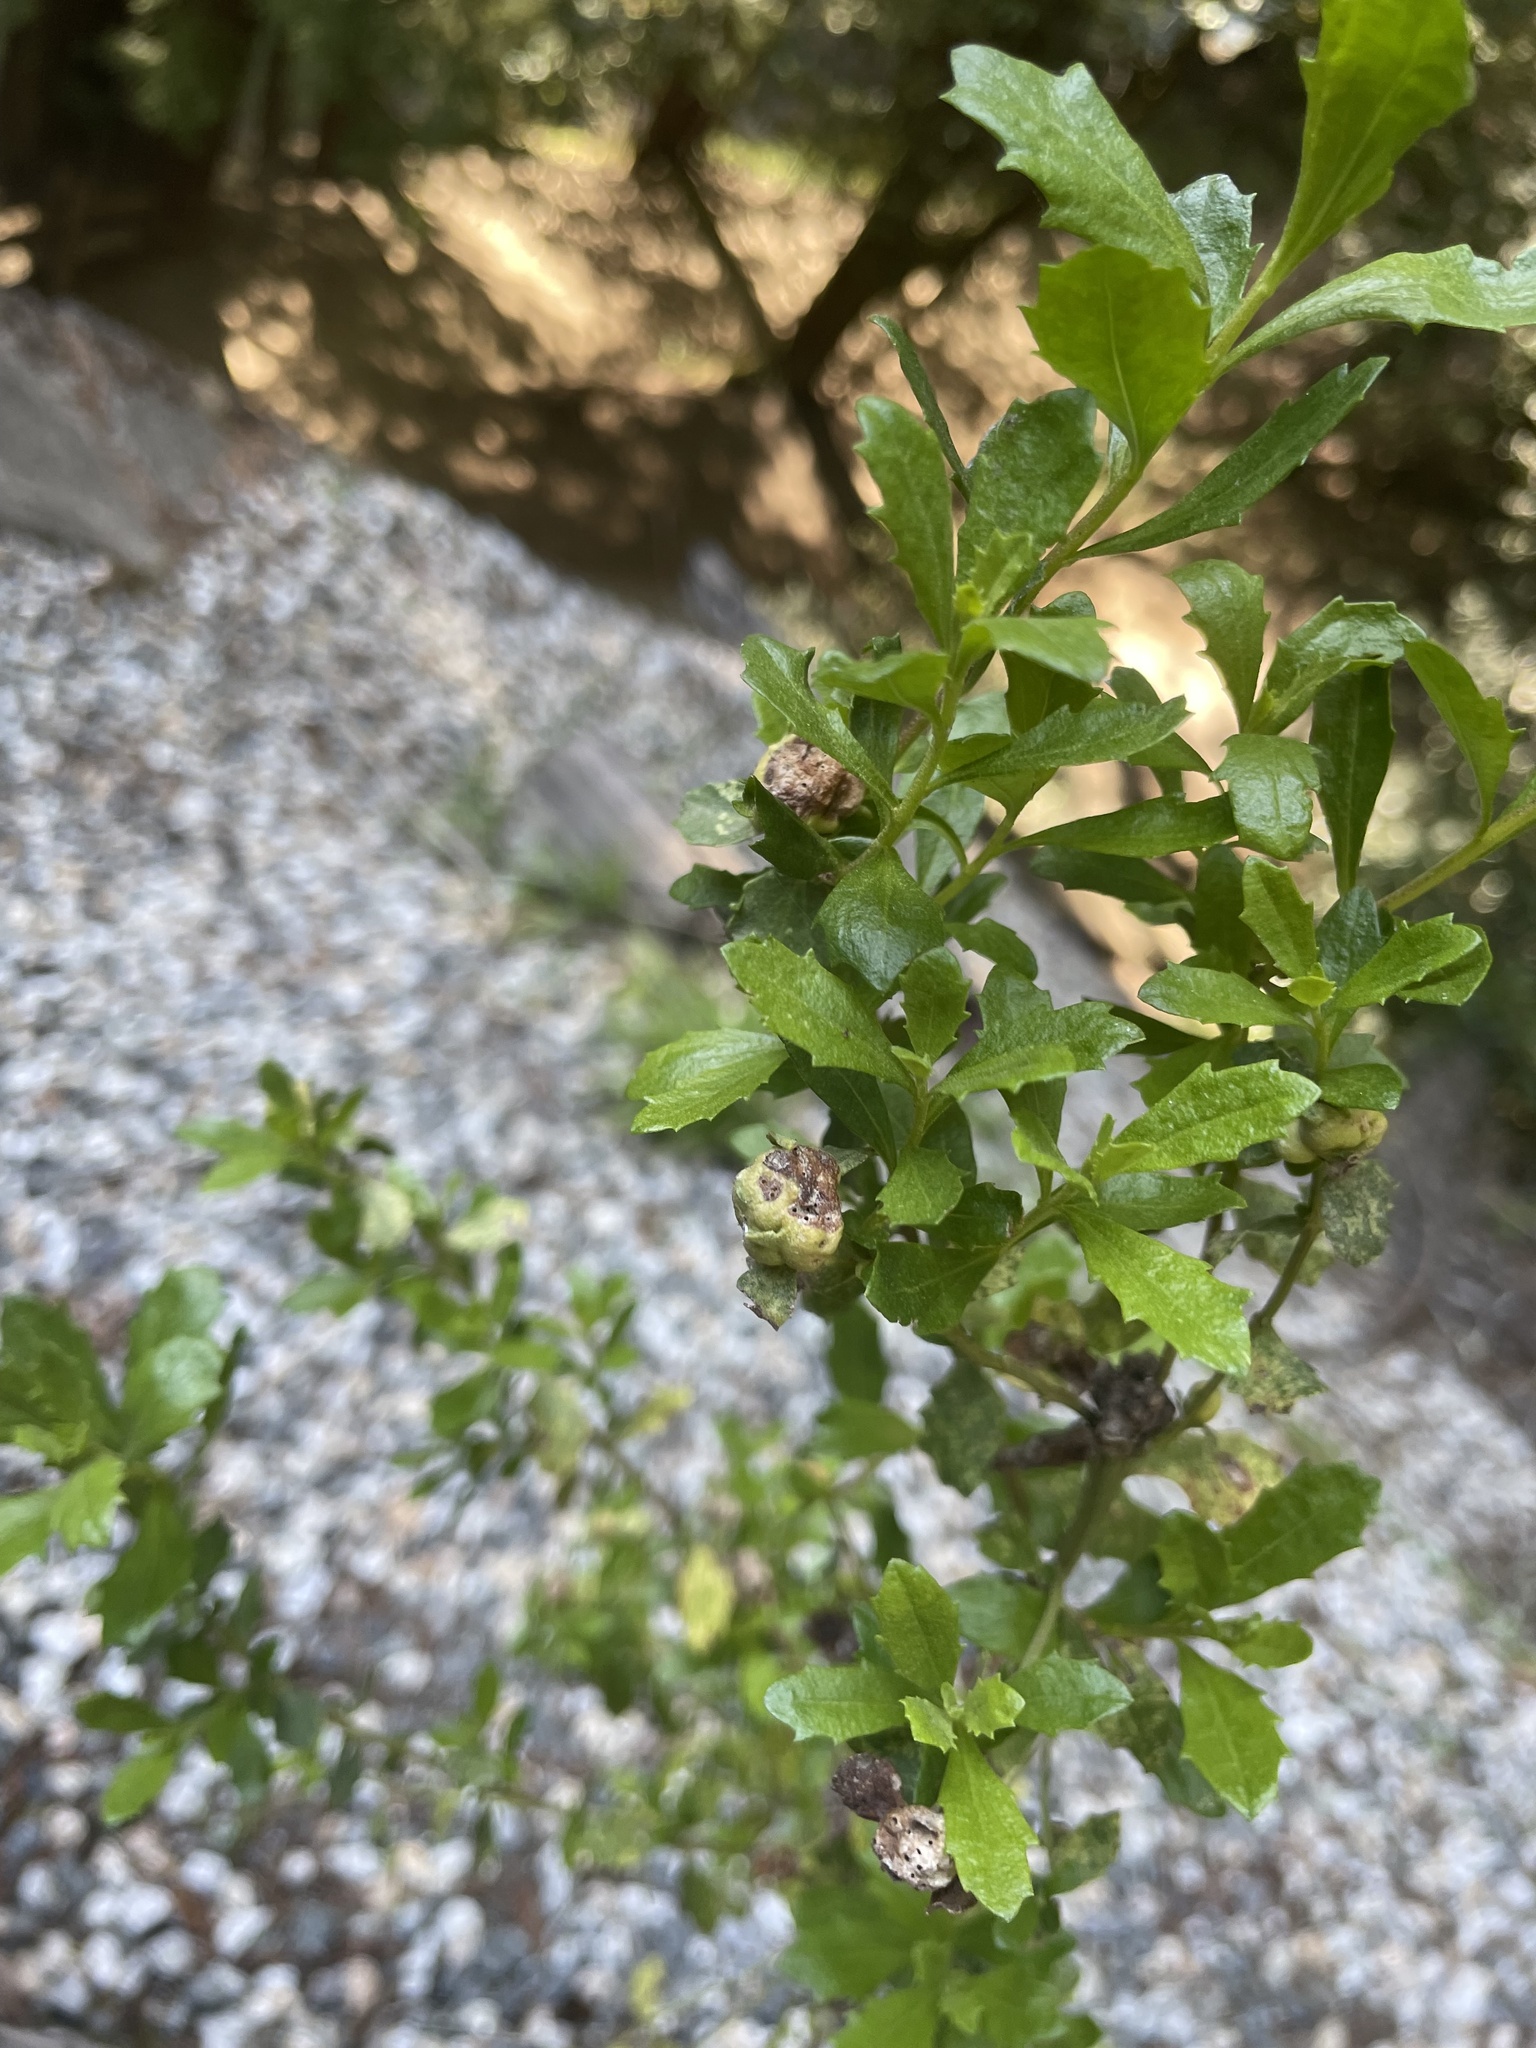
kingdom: Plantae
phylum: Tracheophyta
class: Magnoliopsida
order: Asterales
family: Asteraceae
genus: Baccharis
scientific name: Baccharis pilularis
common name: Coyotebrush
